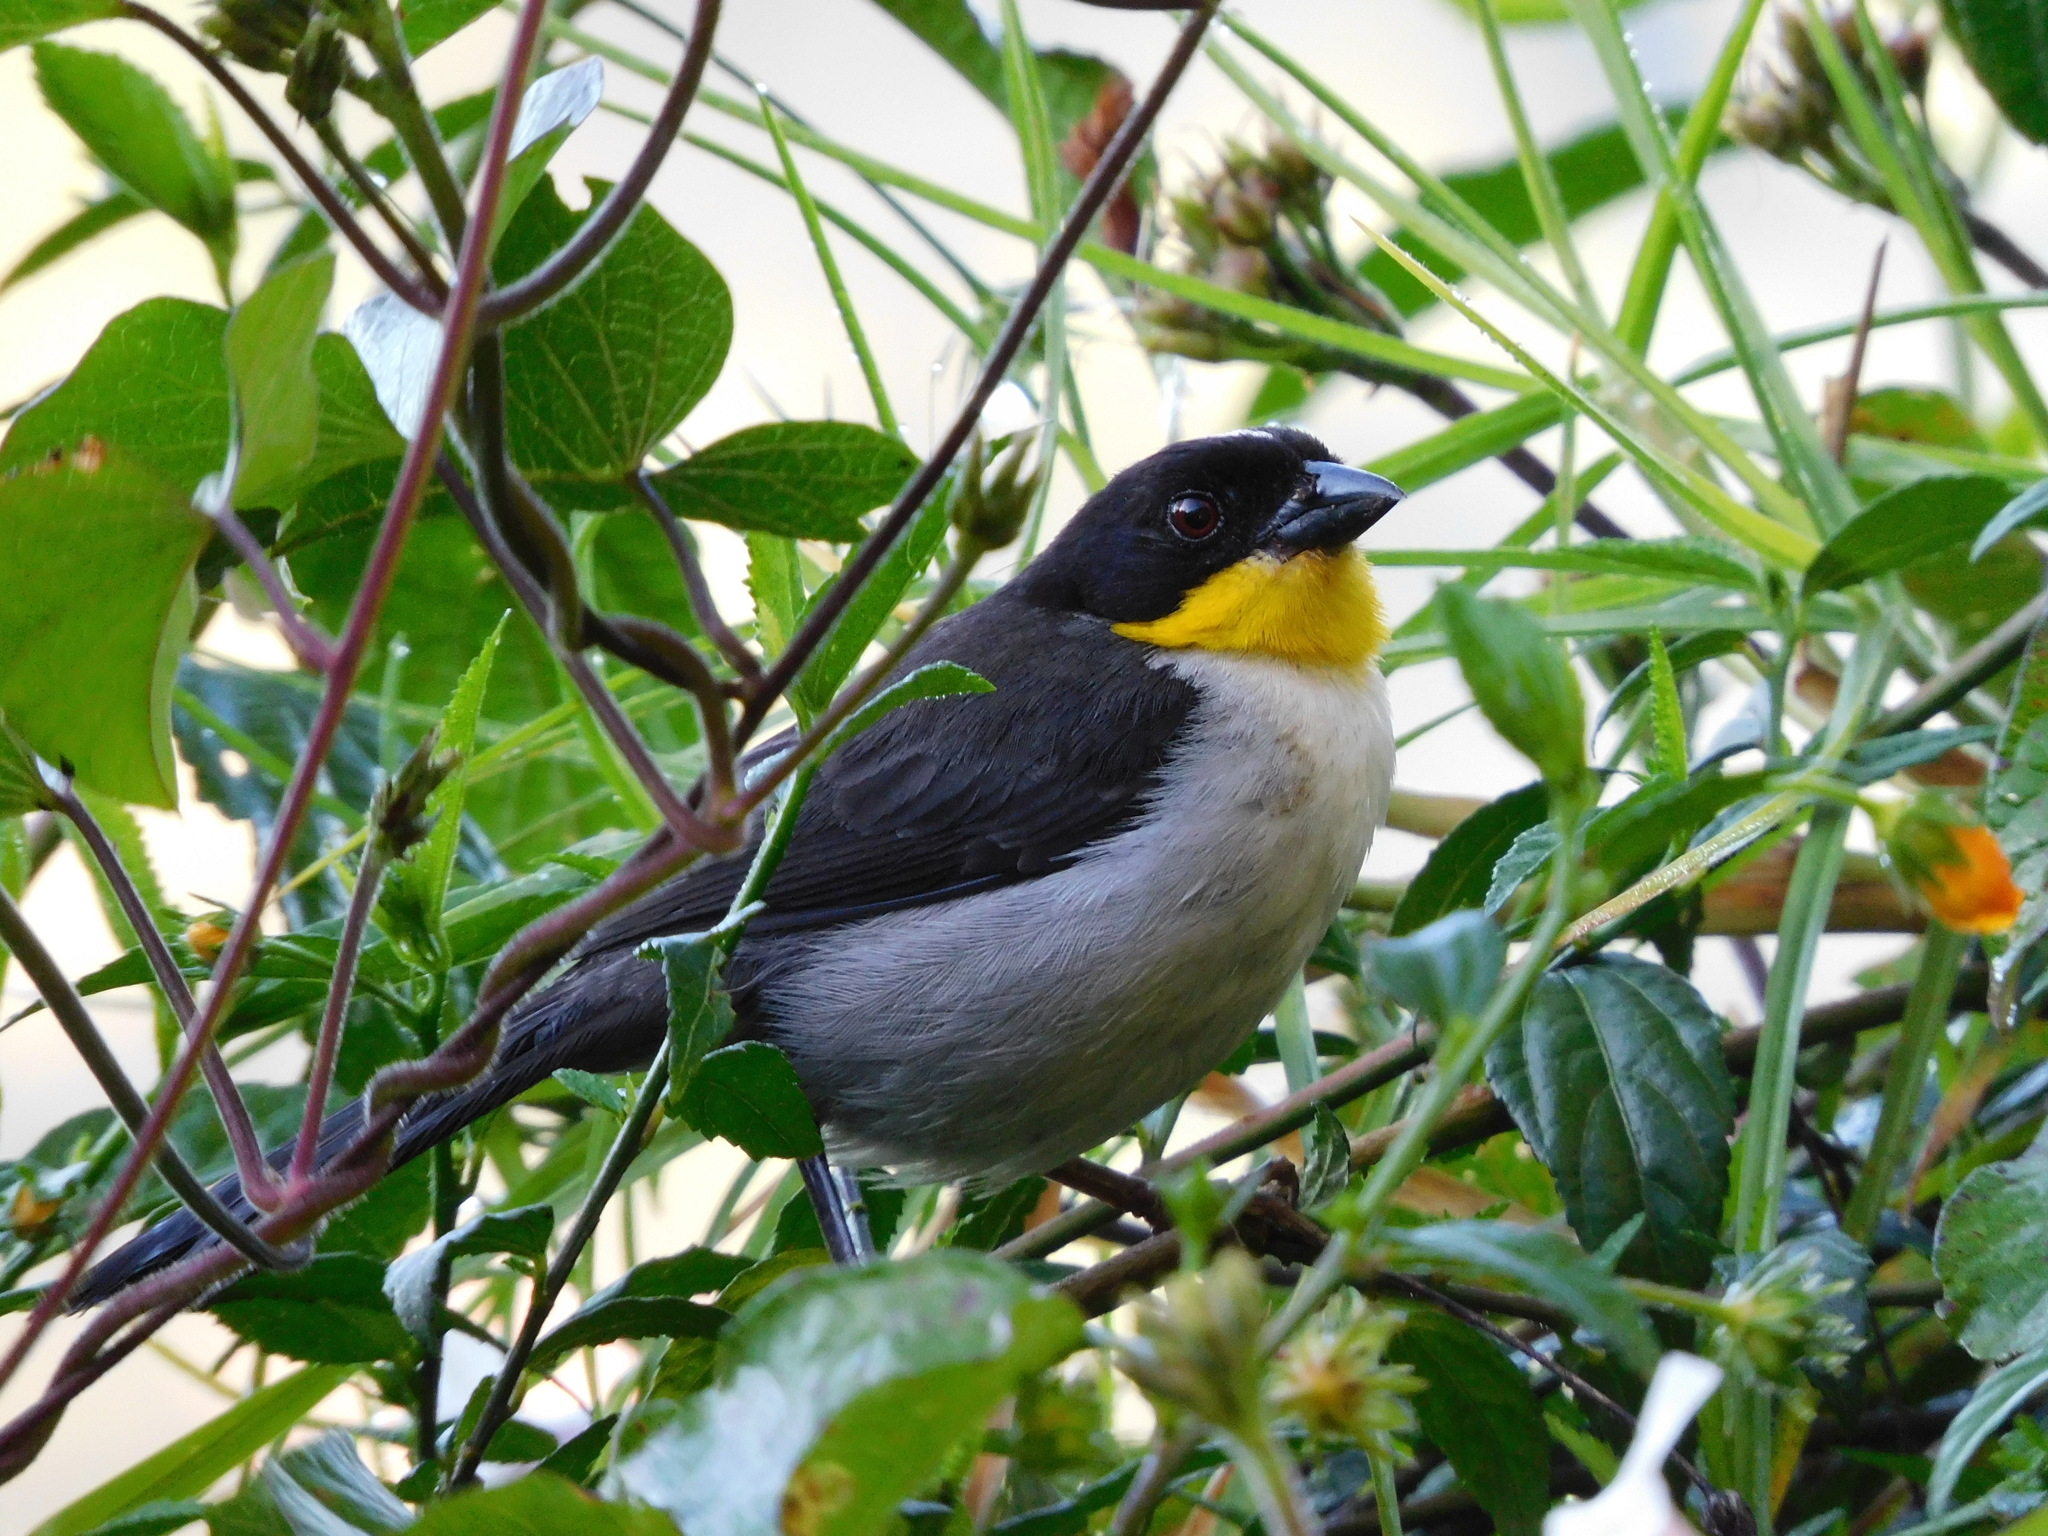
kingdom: Animalia
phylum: Chordata
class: Aves
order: Passeriformes
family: Passerellidae
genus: Atlapetes
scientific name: Atlapetes albinucha
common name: White-naped brush-finch
